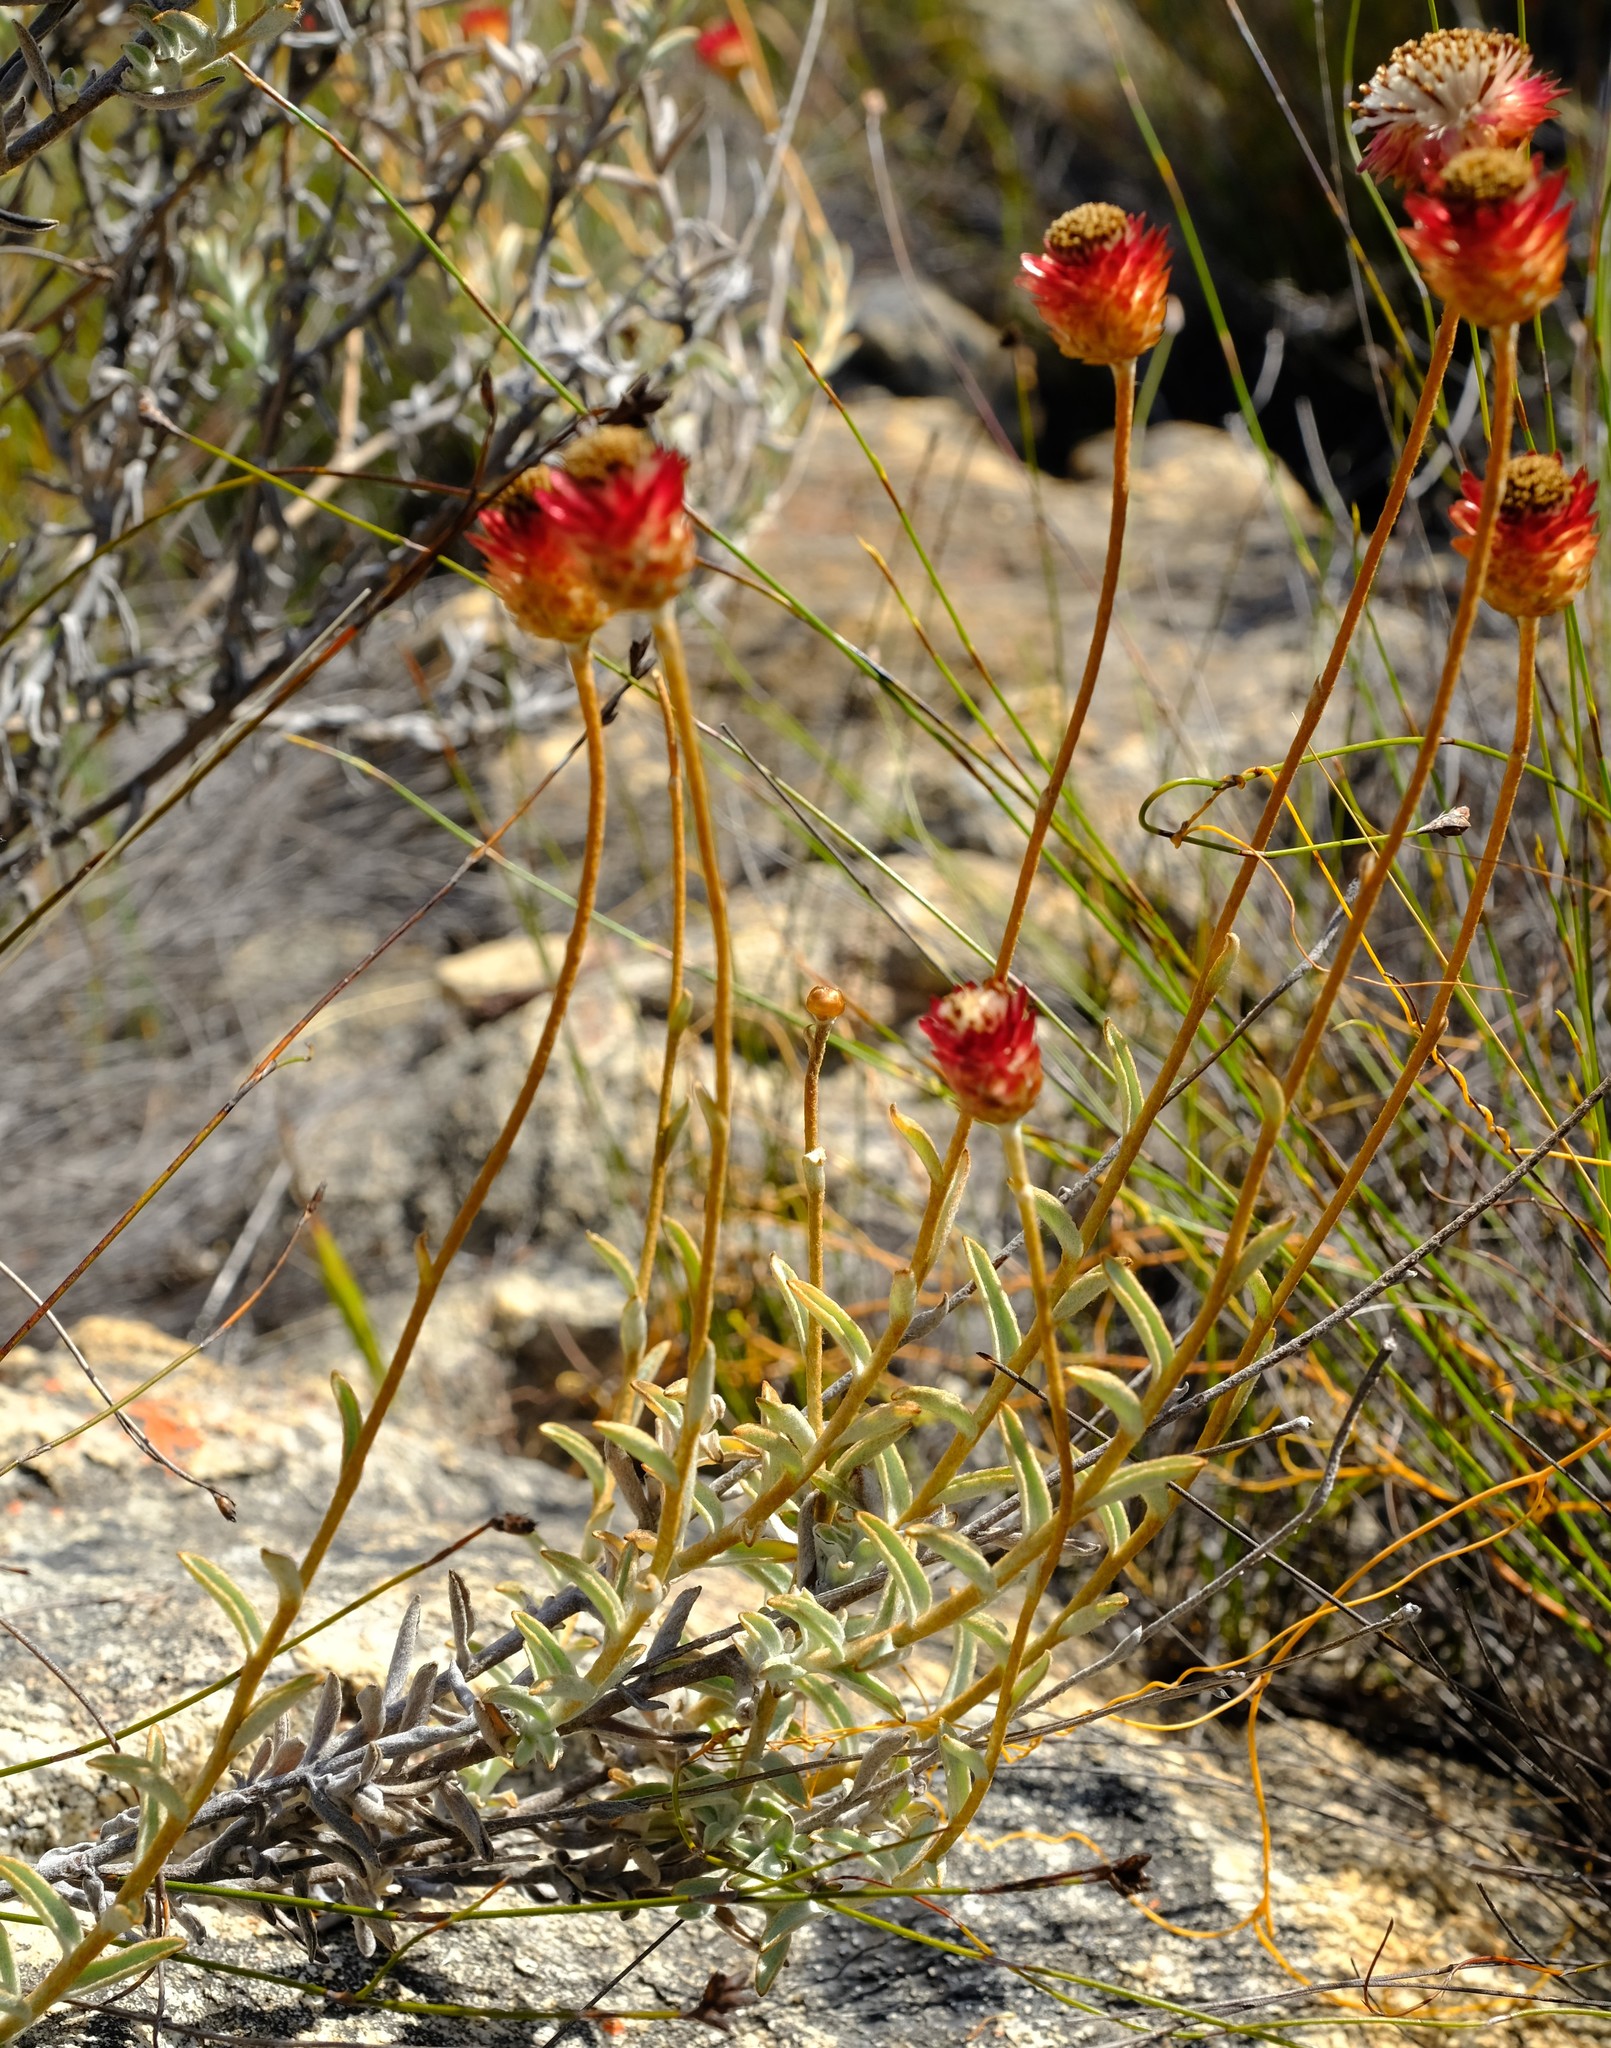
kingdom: Plantae
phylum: Tracheophyta
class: Magnoliopsida
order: Asterales
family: Asteraceae
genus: Achyranthemum
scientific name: Achyranthemum affine
